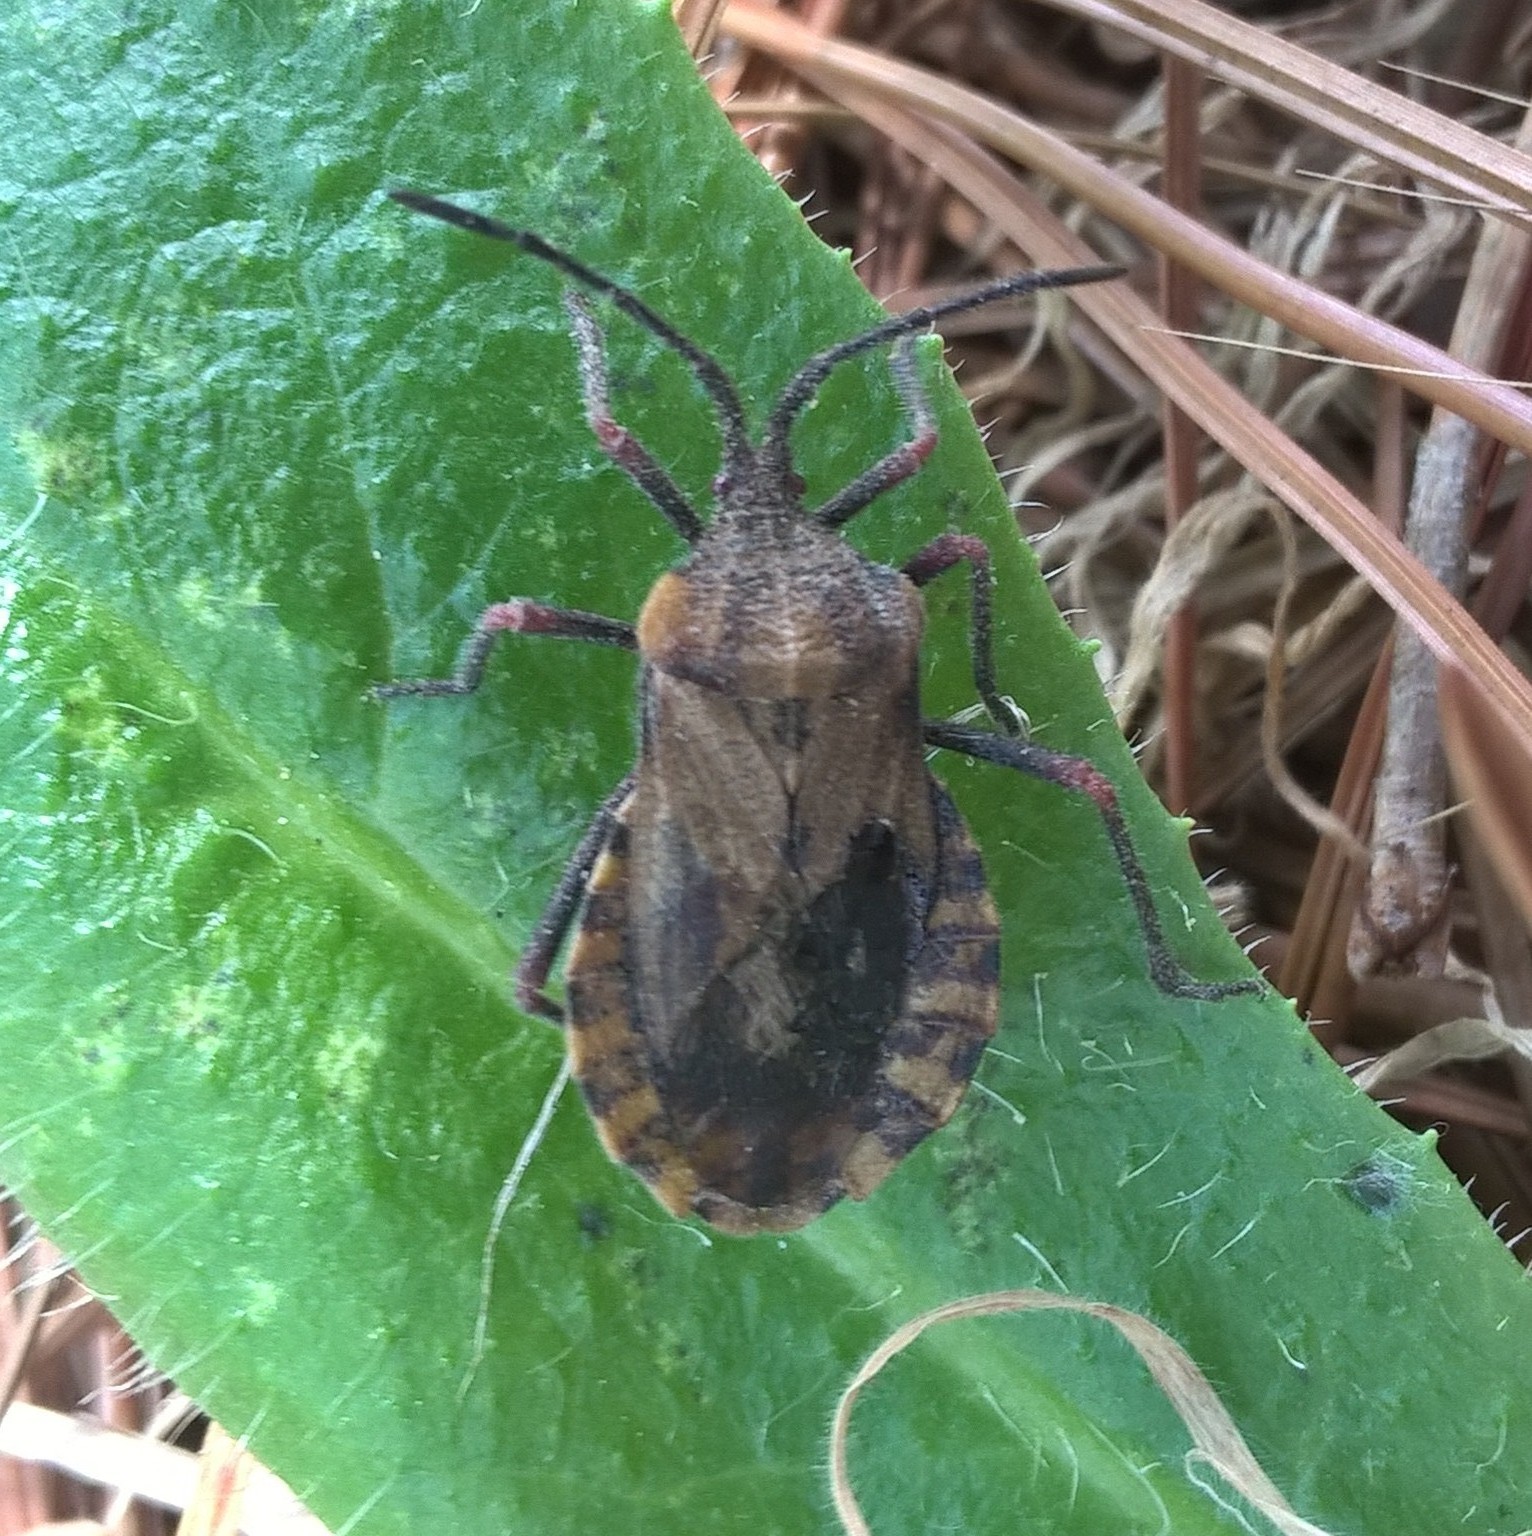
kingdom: Animalia
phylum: Arthropoda
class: Insecta
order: Hemiptera
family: Coreidae
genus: Spartocera
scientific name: Spartocera fusca
